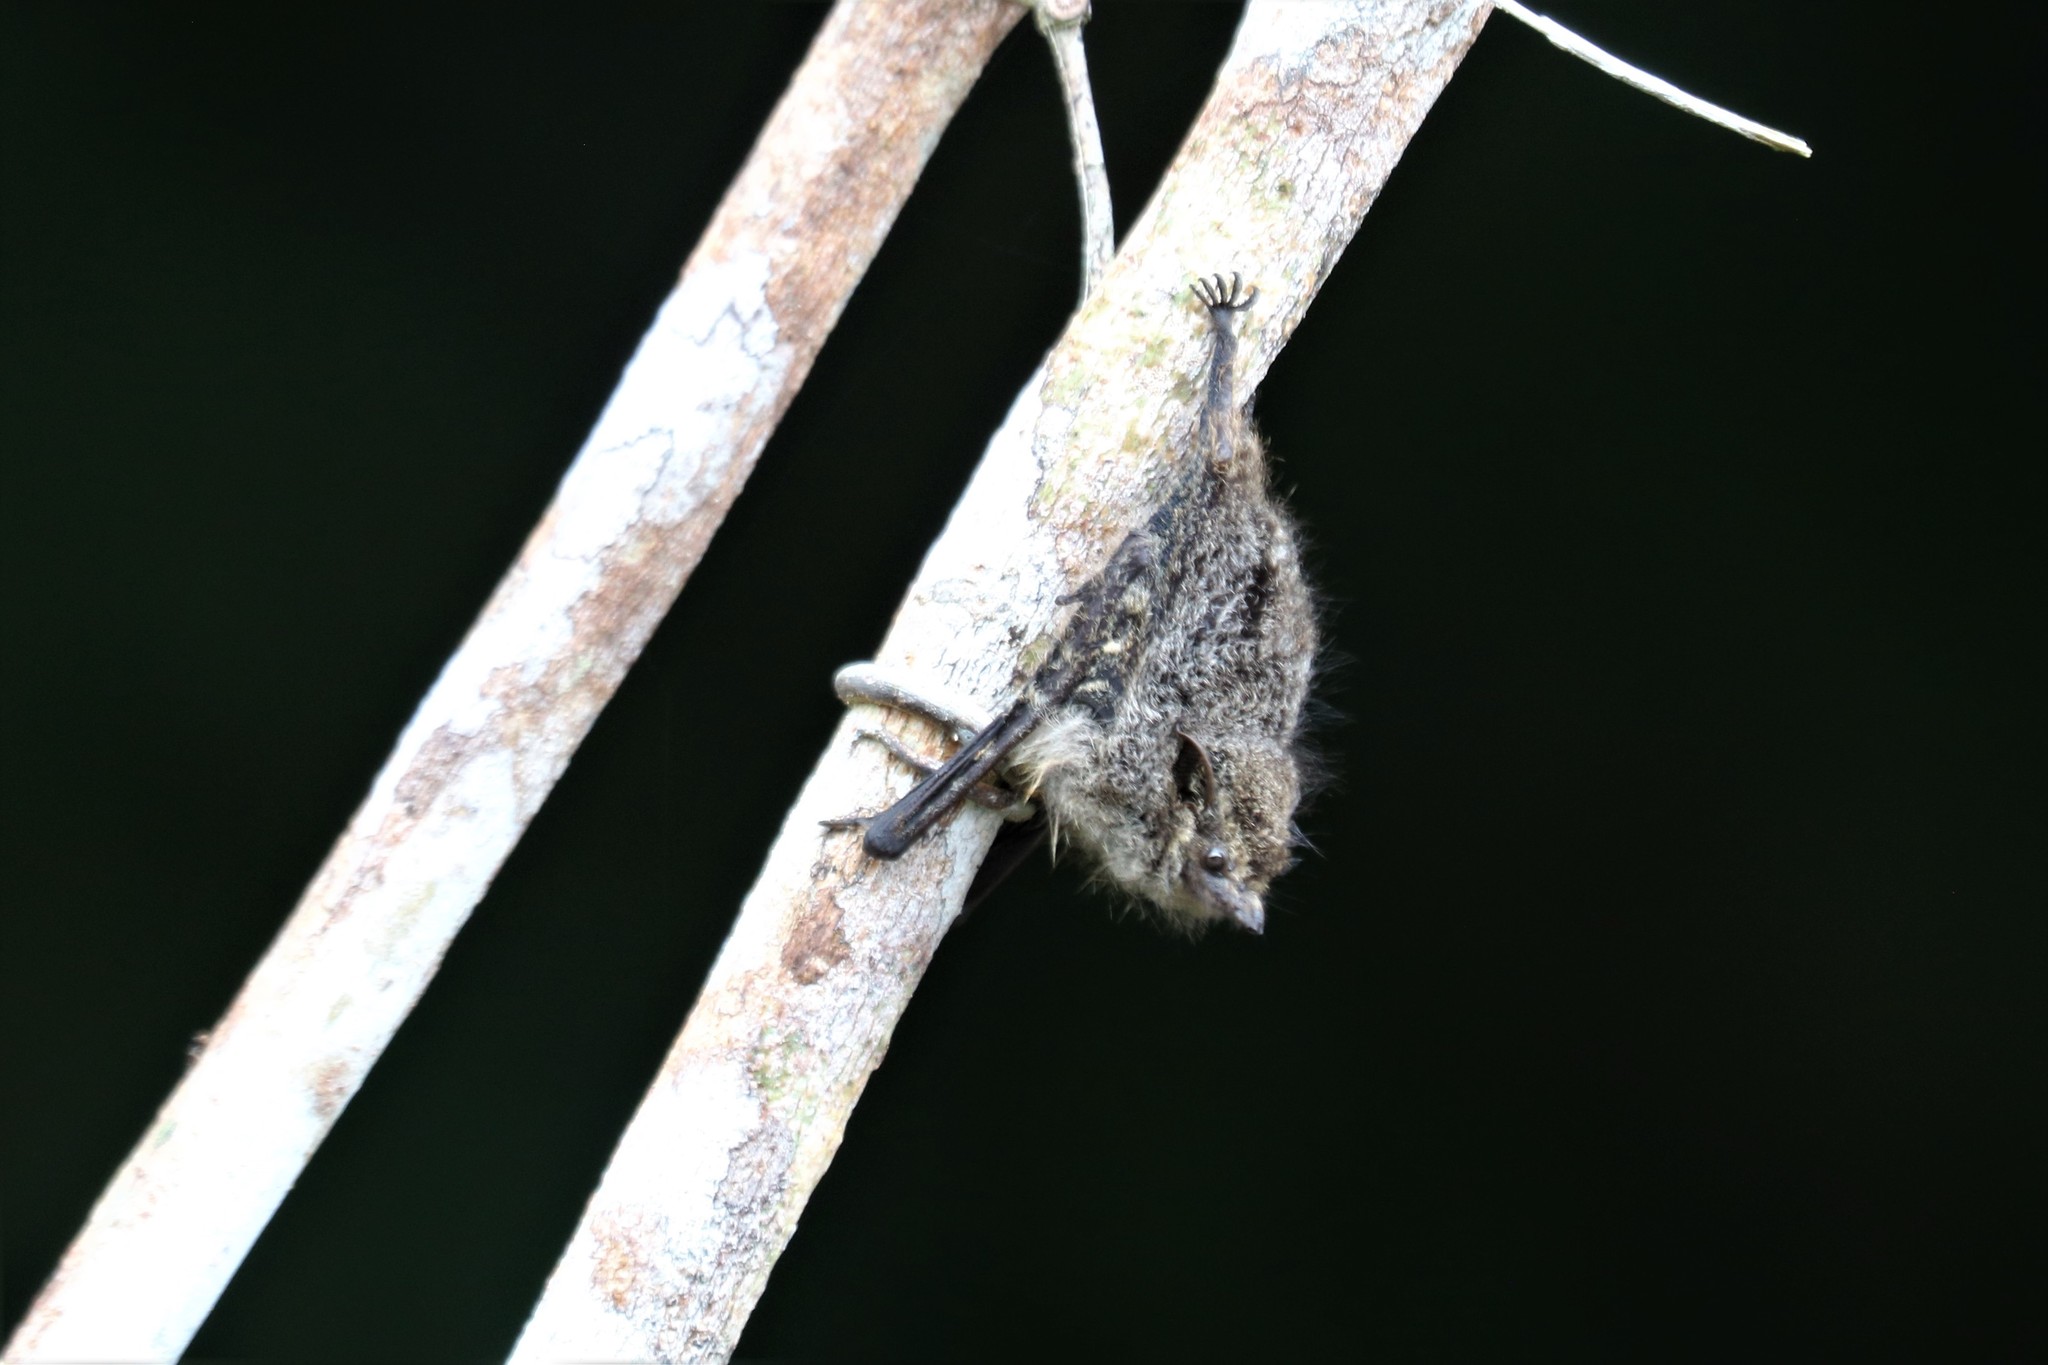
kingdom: Animalia
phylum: Chordata
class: Mammalia
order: Chiroptera
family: Emballonuridae
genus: Rhynchonycteris
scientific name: Rhynchonycteris naso
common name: Proboscis bat
